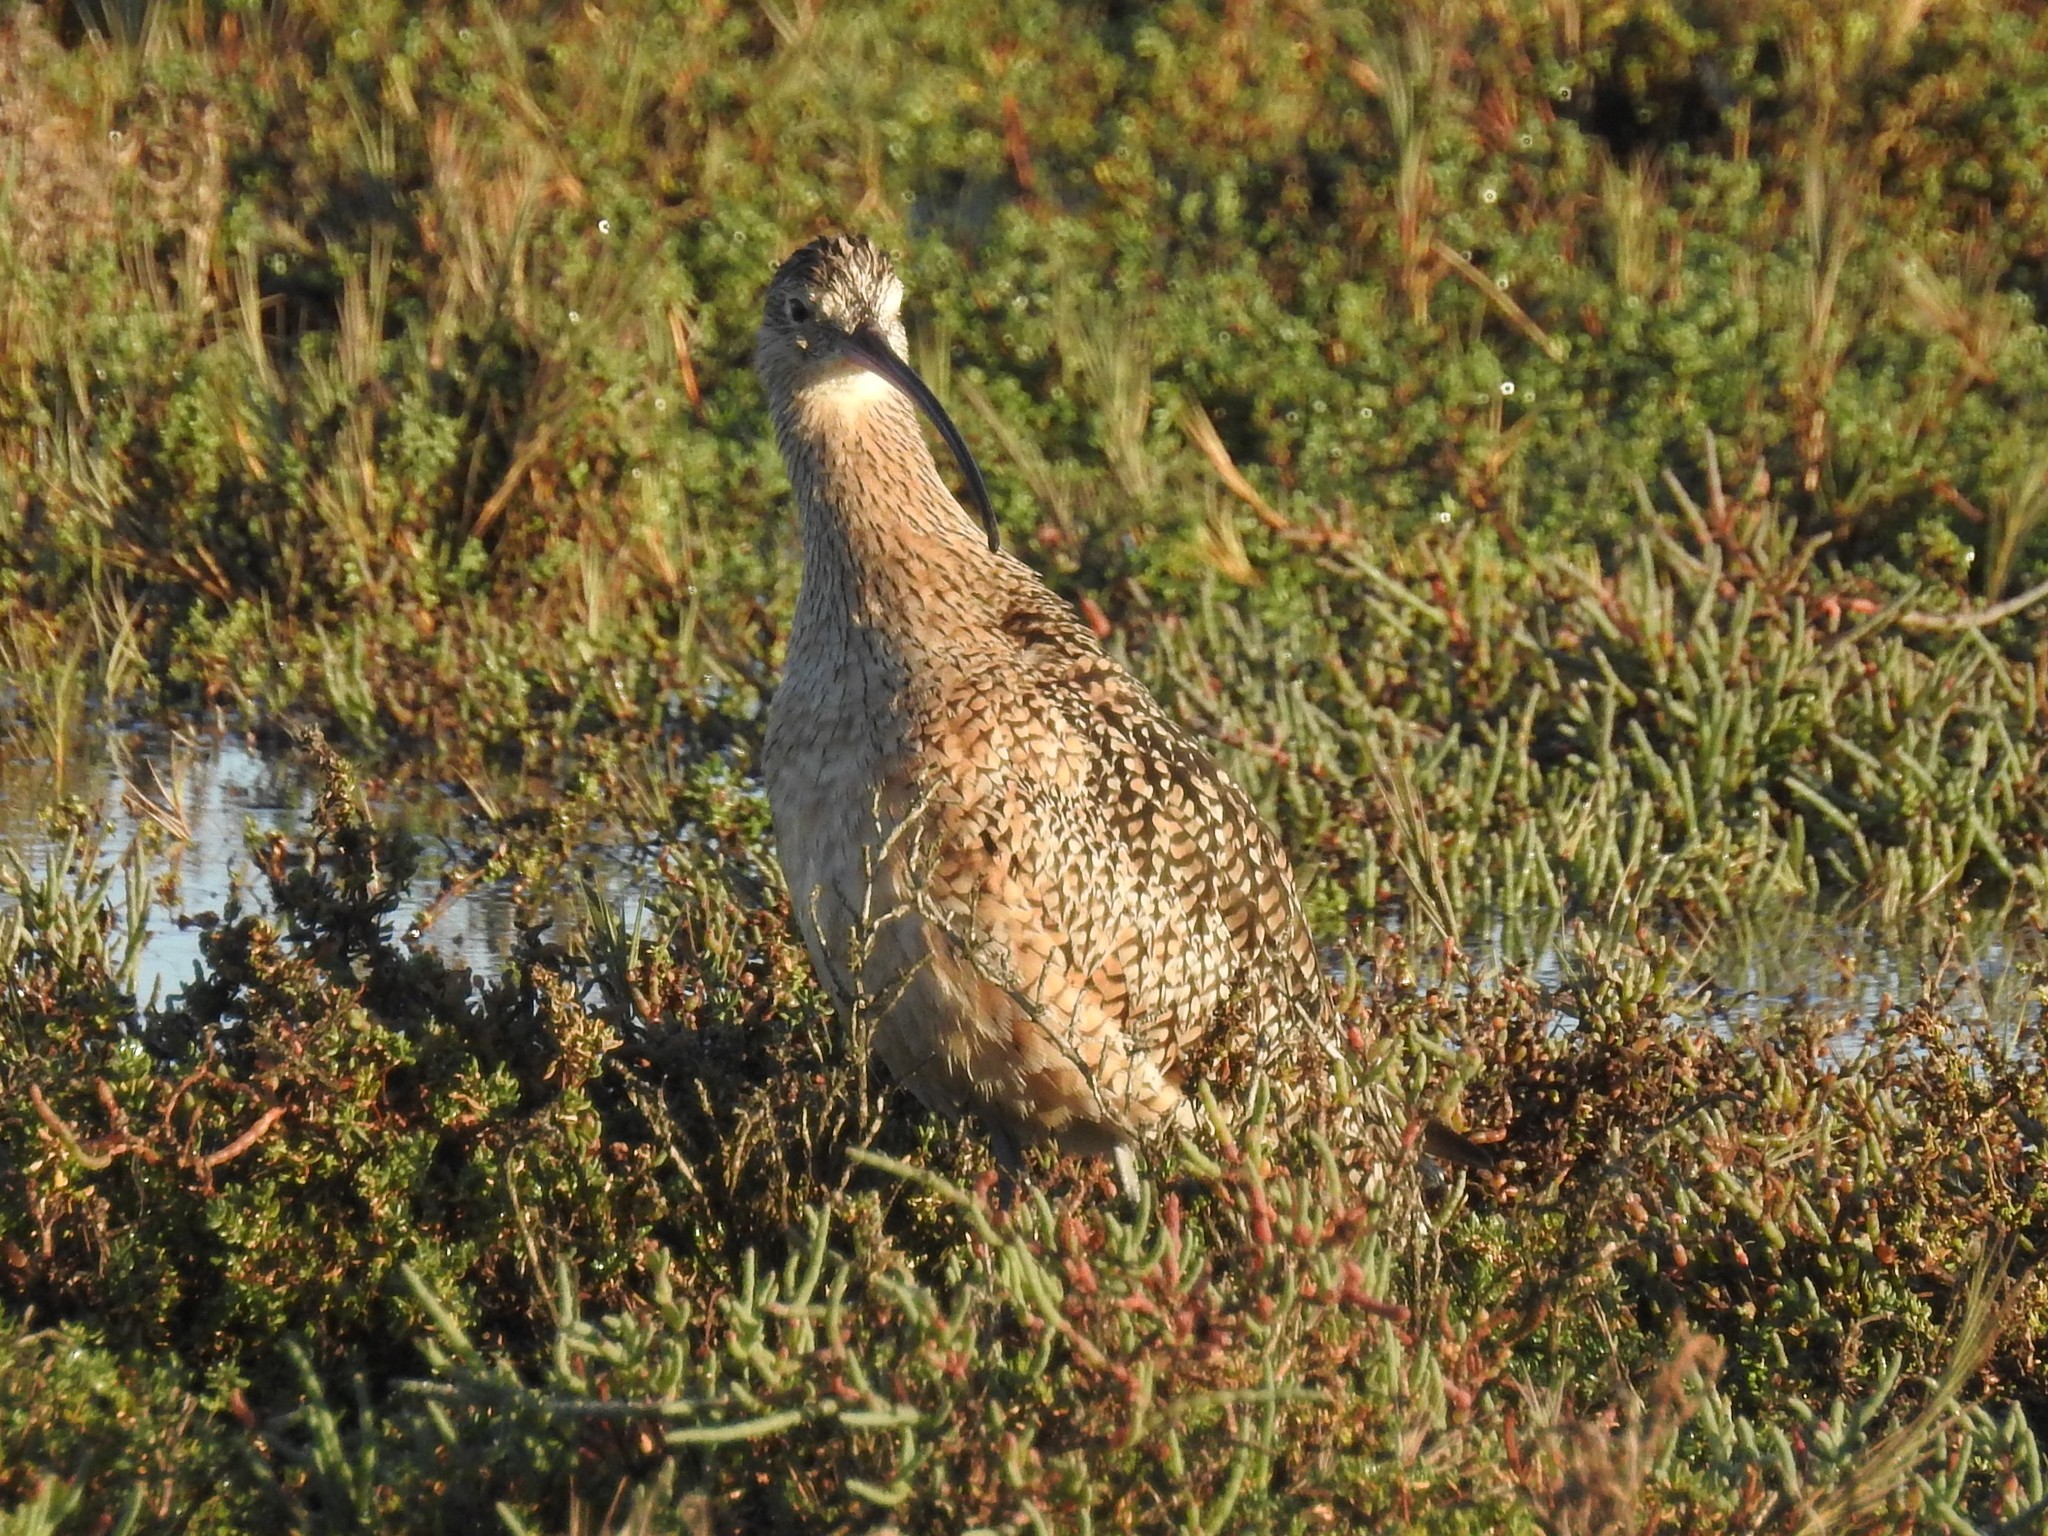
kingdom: Animalia
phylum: Chordata
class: Aves
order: Charadriiformes
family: Scolopacidae
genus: Numenius
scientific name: Numenius americanus
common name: Long-billed curlew
